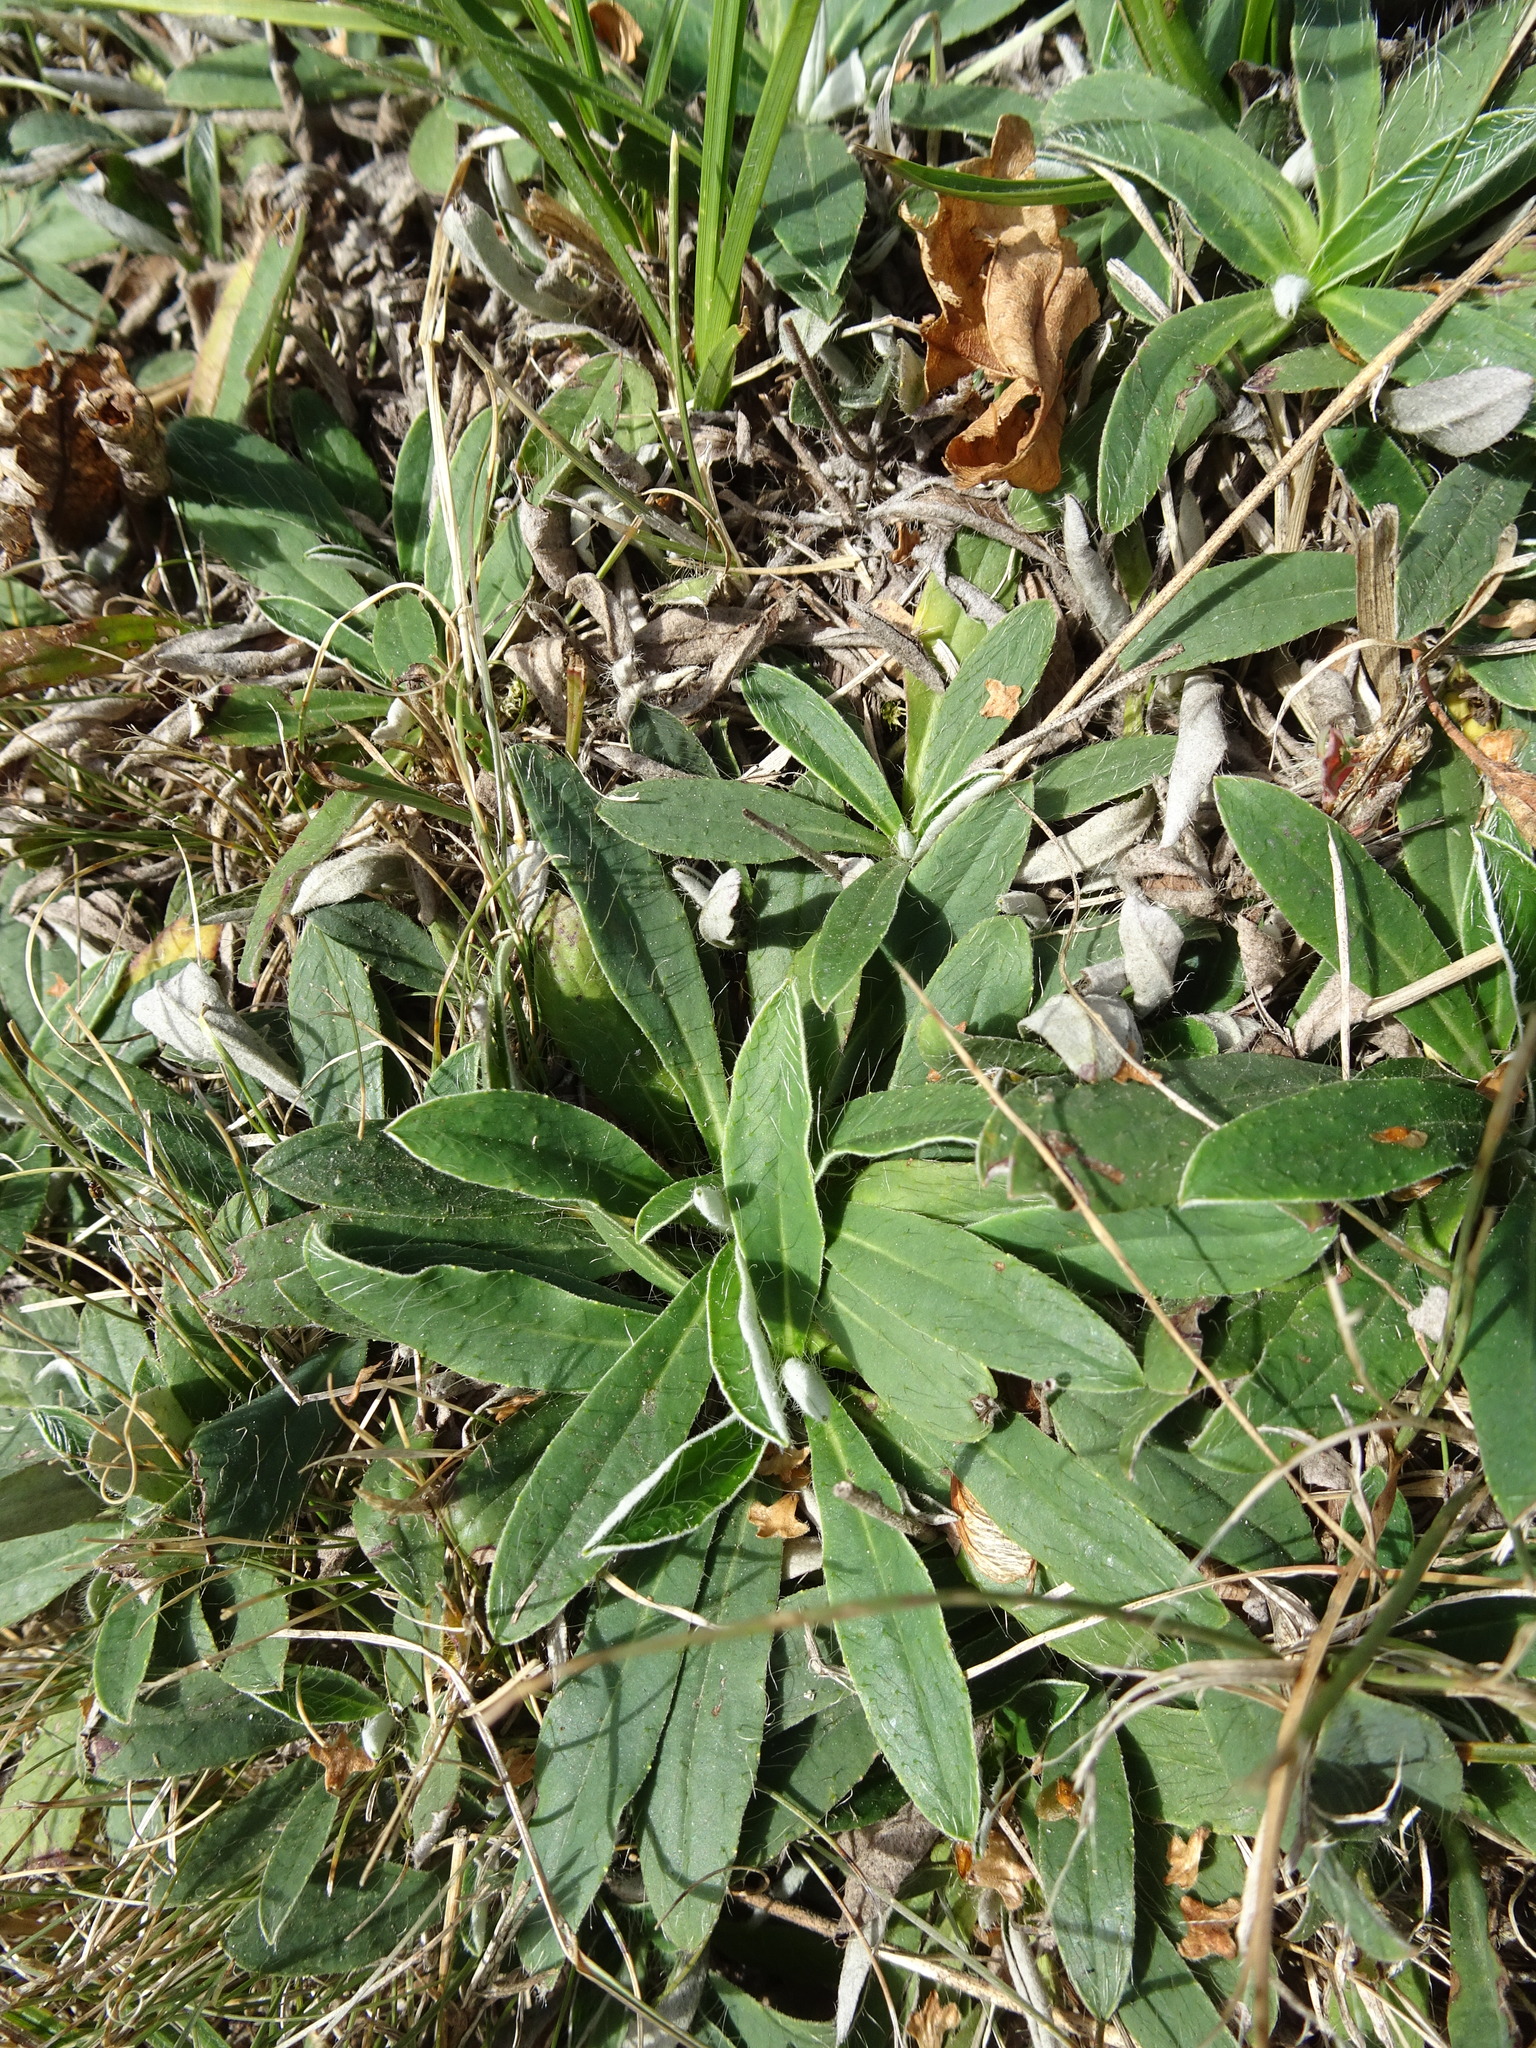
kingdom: Plantae
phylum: Tracheophyta
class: Magnoliopsida
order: Asterales
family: Asteraceae
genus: Pilosella
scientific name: Pilosella officinarum
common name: Mouse-ear hawkweed
